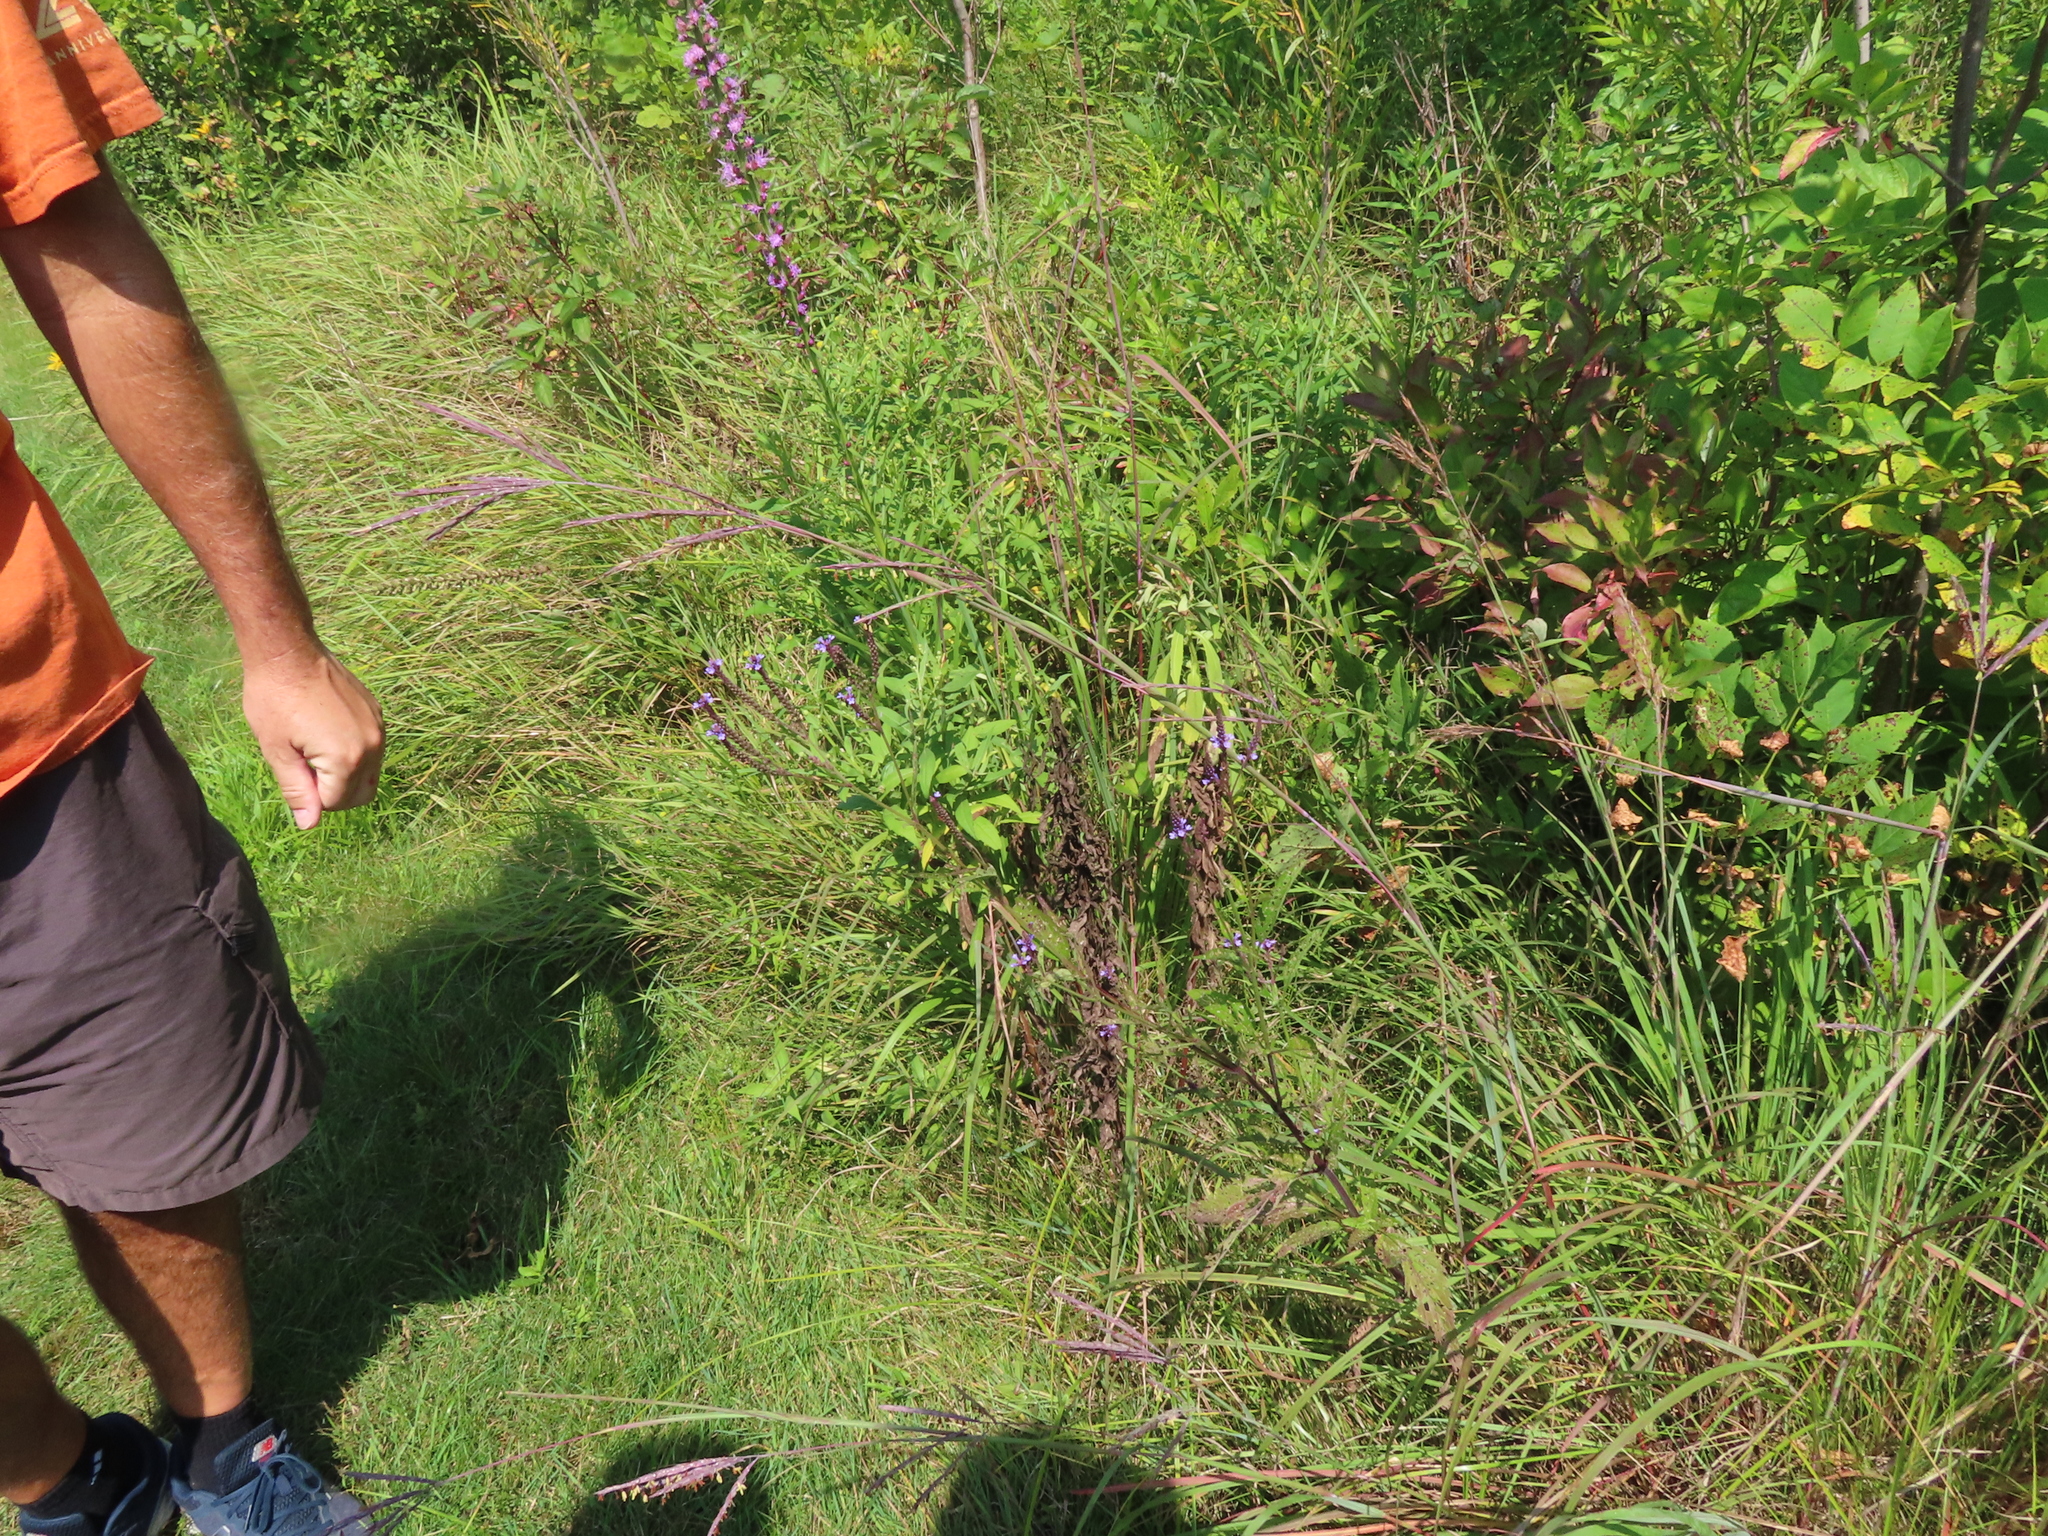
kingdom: Plantae
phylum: Tracheophyta
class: Magnoliopsida
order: Lamiales
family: Verbenaceae
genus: Verbena
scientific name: Verbena hastata
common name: American blue vervain
